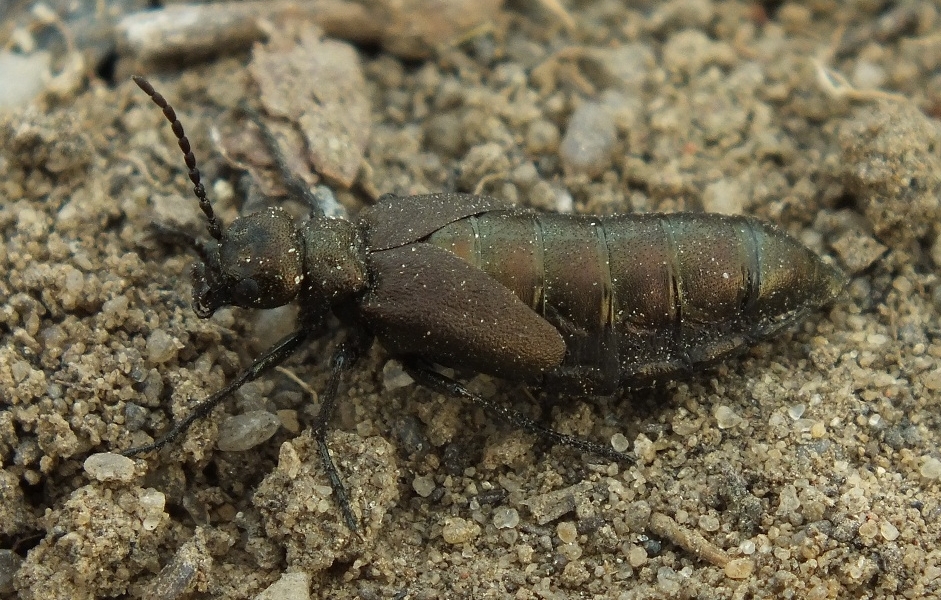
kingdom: Animalia
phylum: Arthropoda
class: Insecta
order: Coleoptera
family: Meloidae
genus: Meloe
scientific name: Meloe aeneus
